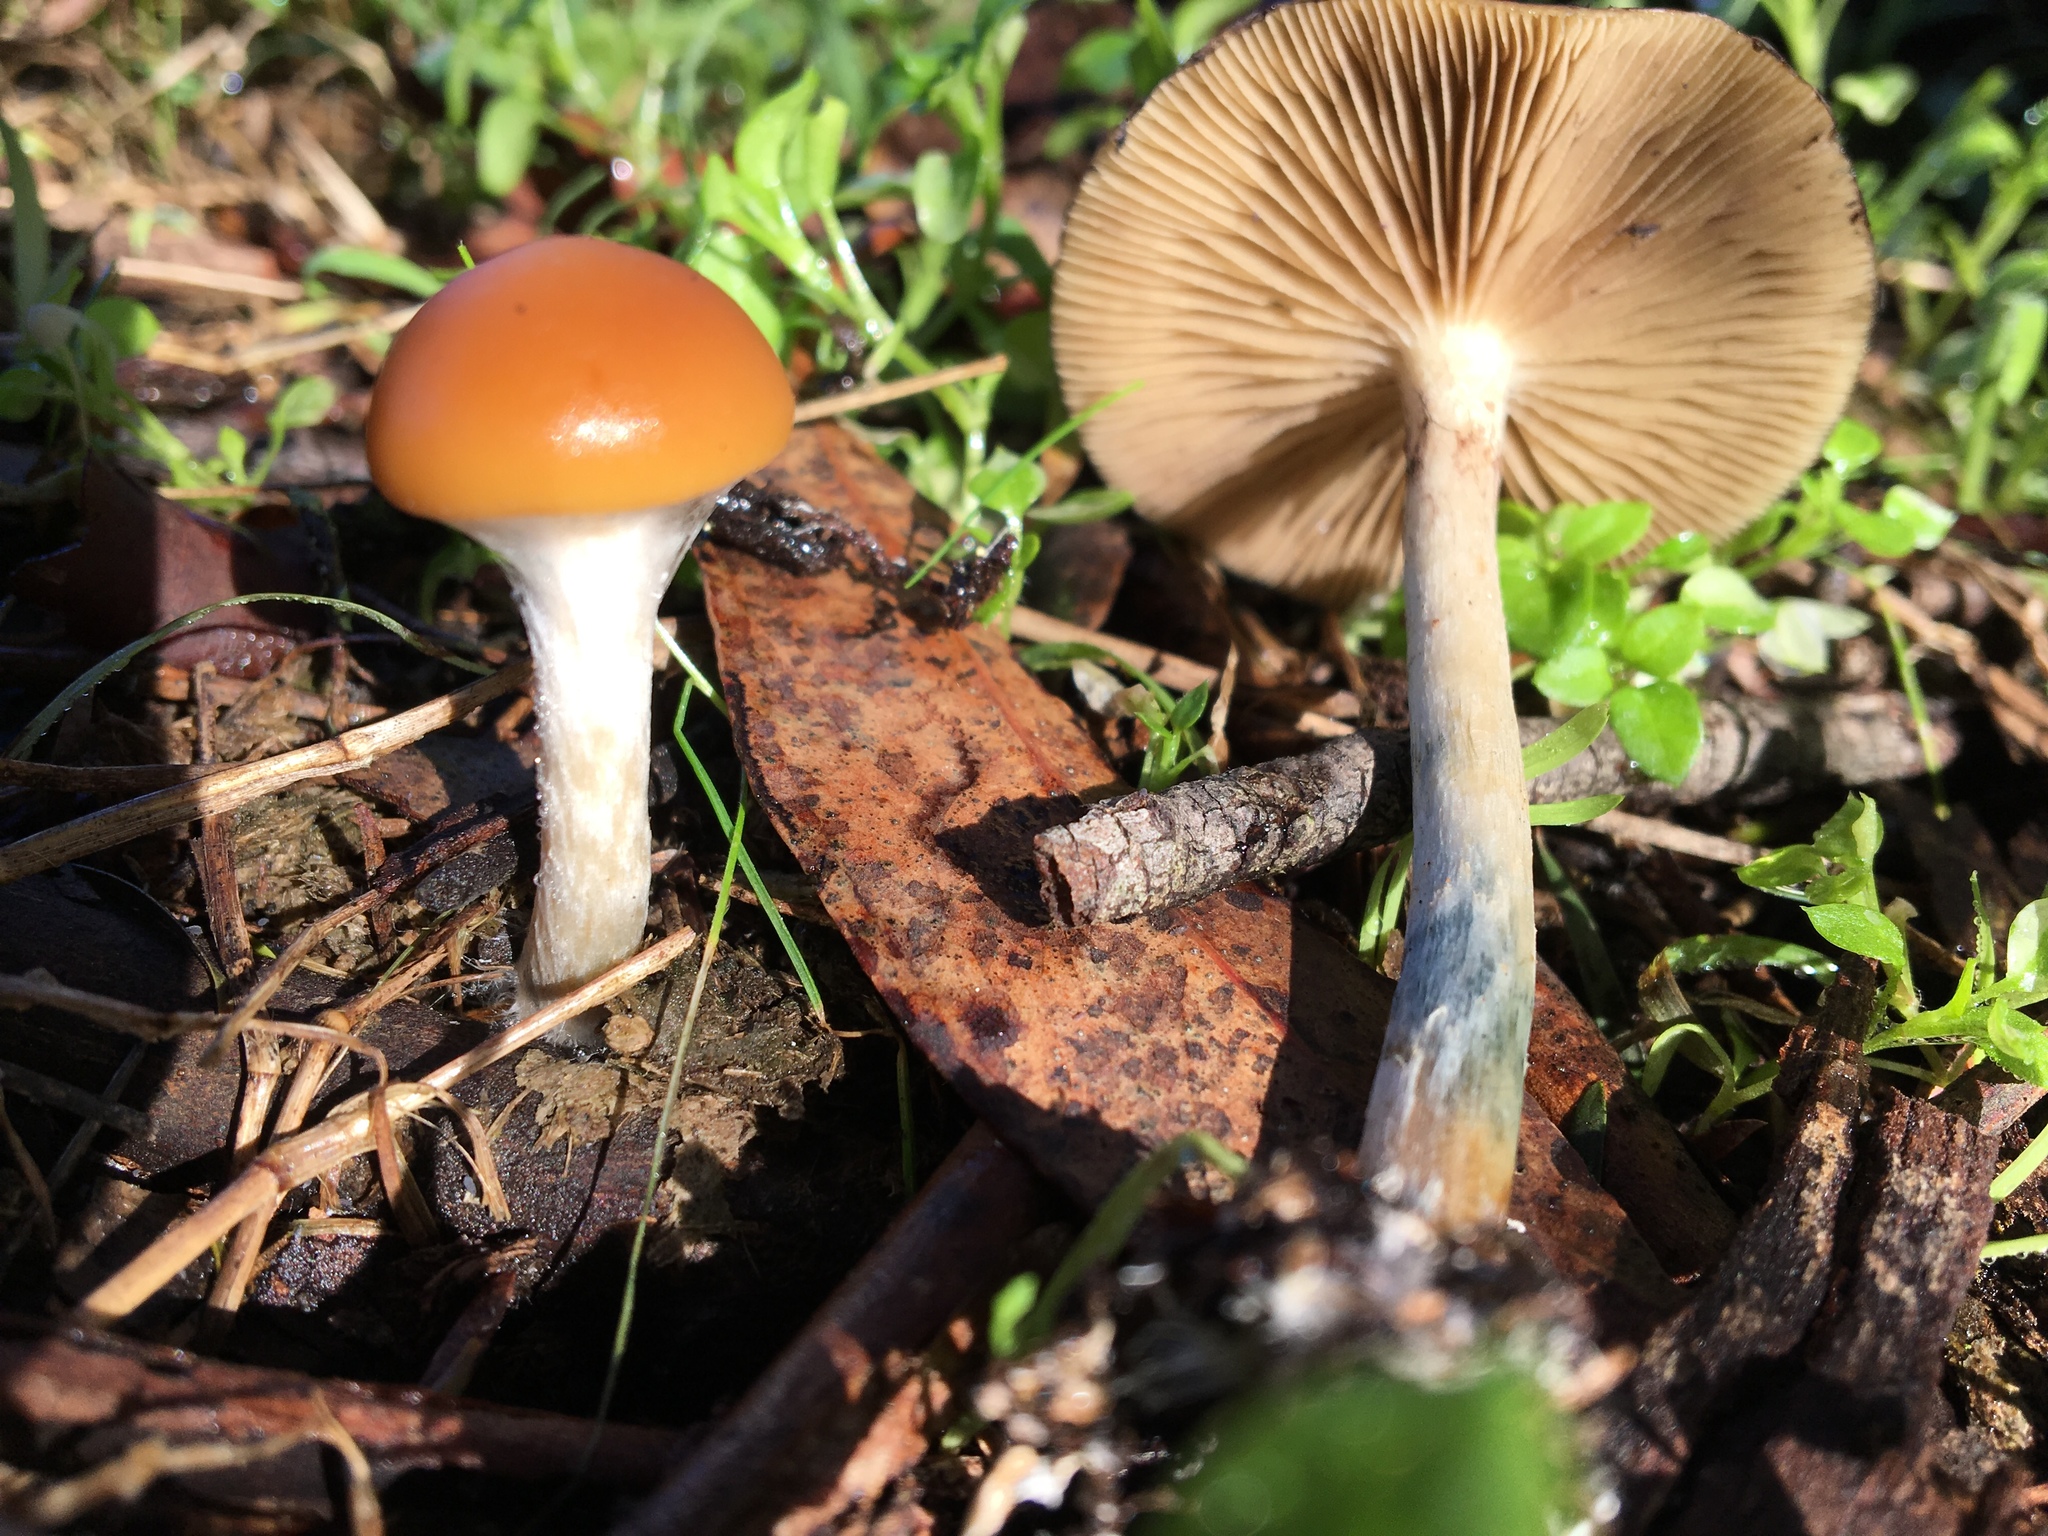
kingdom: Fungi
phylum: Basidiomycota
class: Agaricomycetes
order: Agaricales
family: Hymenogastraceae
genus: Psilocybe
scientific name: Psilocybe subaeruginosa
